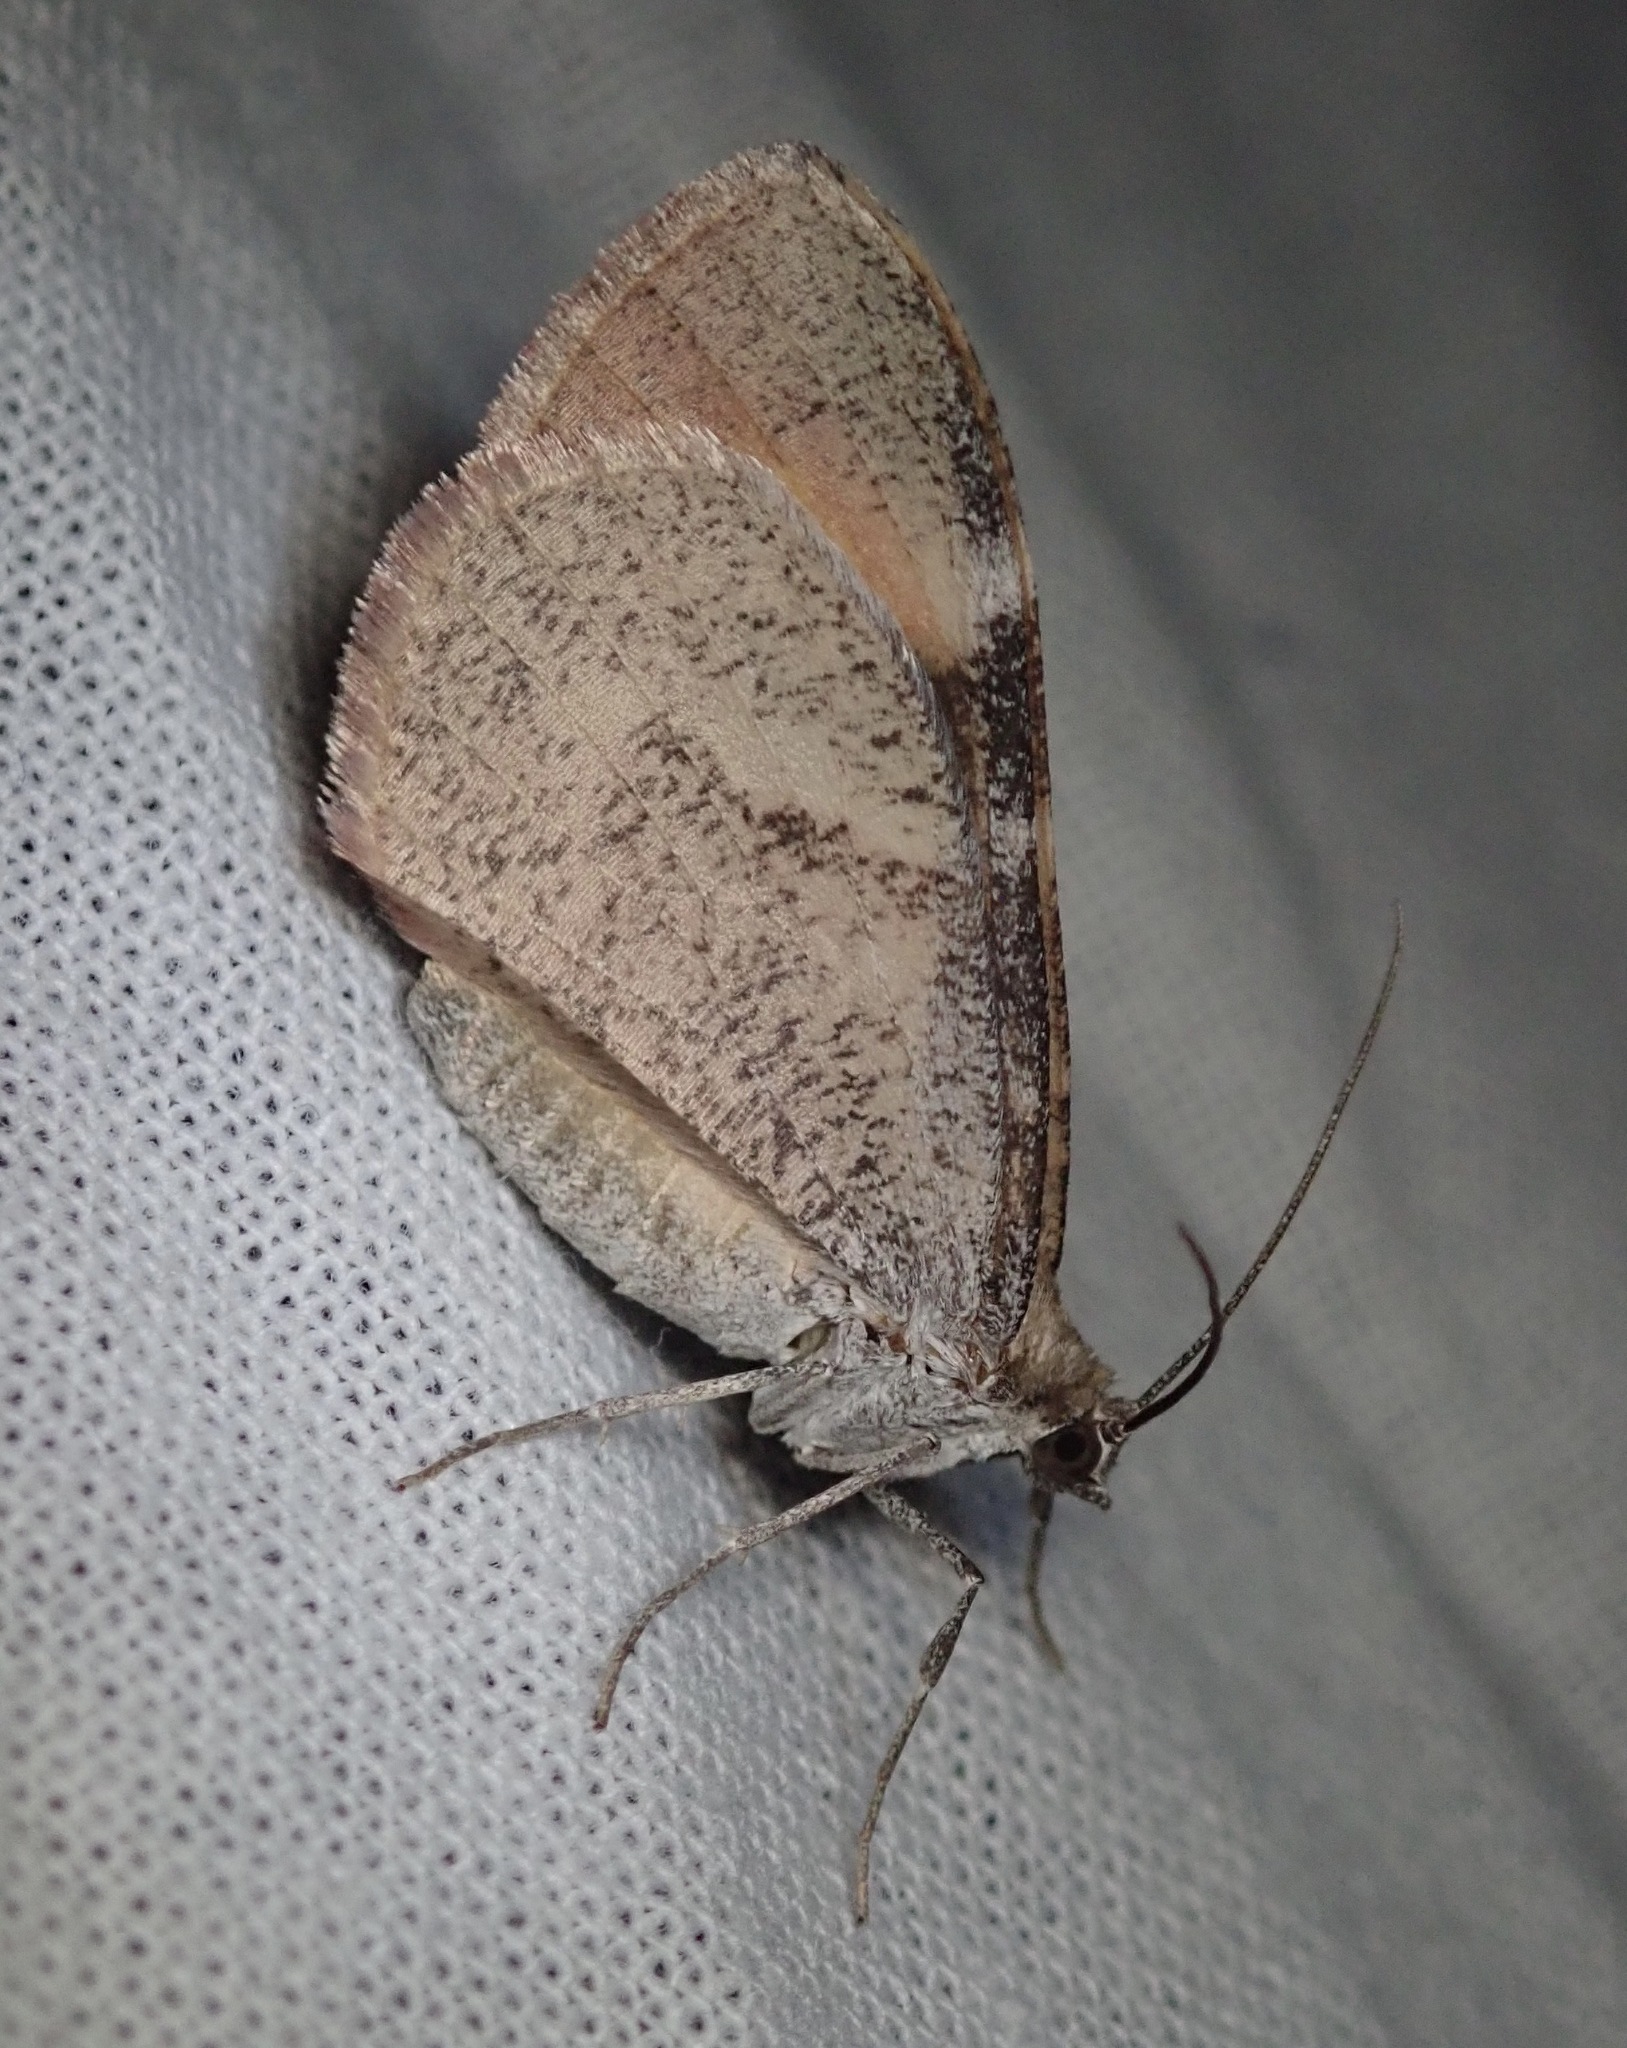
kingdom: Animalia
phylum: Arthropoda
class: Insecta
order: Lepidoptera
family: Geometridae
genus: Stamnodes
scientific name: Stamnodes seiferti
